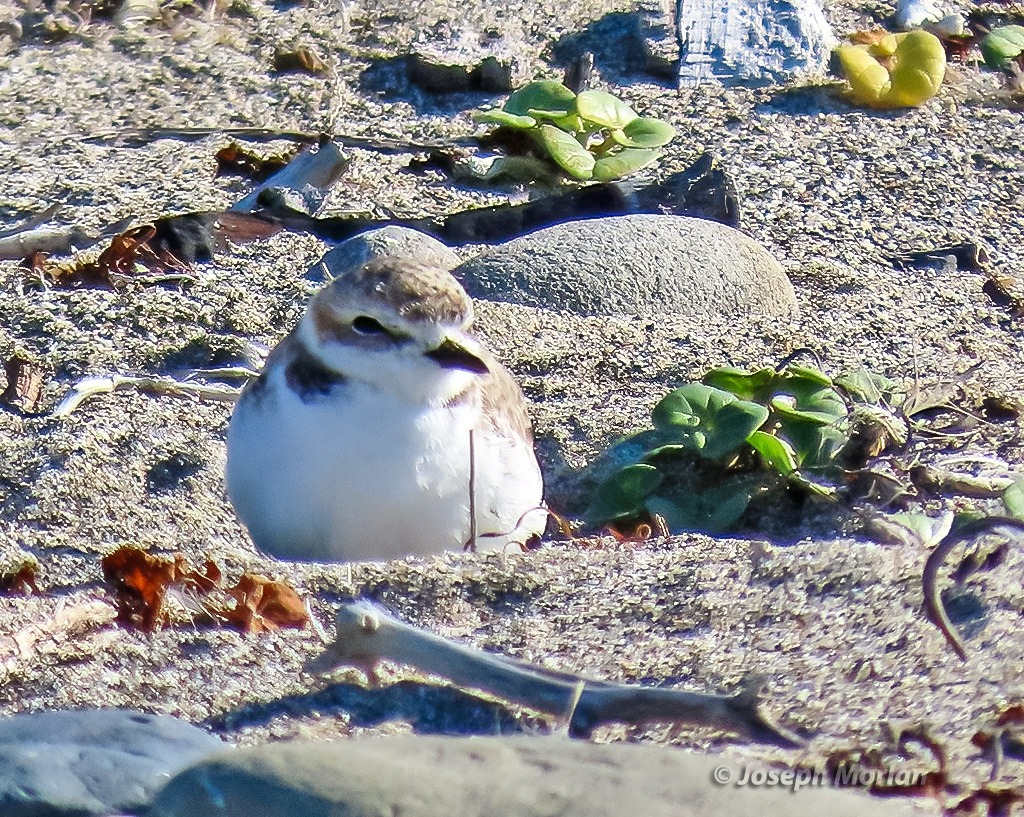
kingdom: Animalia
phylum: Chordata
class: Aves
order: Charadriiformes
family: Charadriidae
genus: Anarhynchus
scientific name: Anarhynchus
